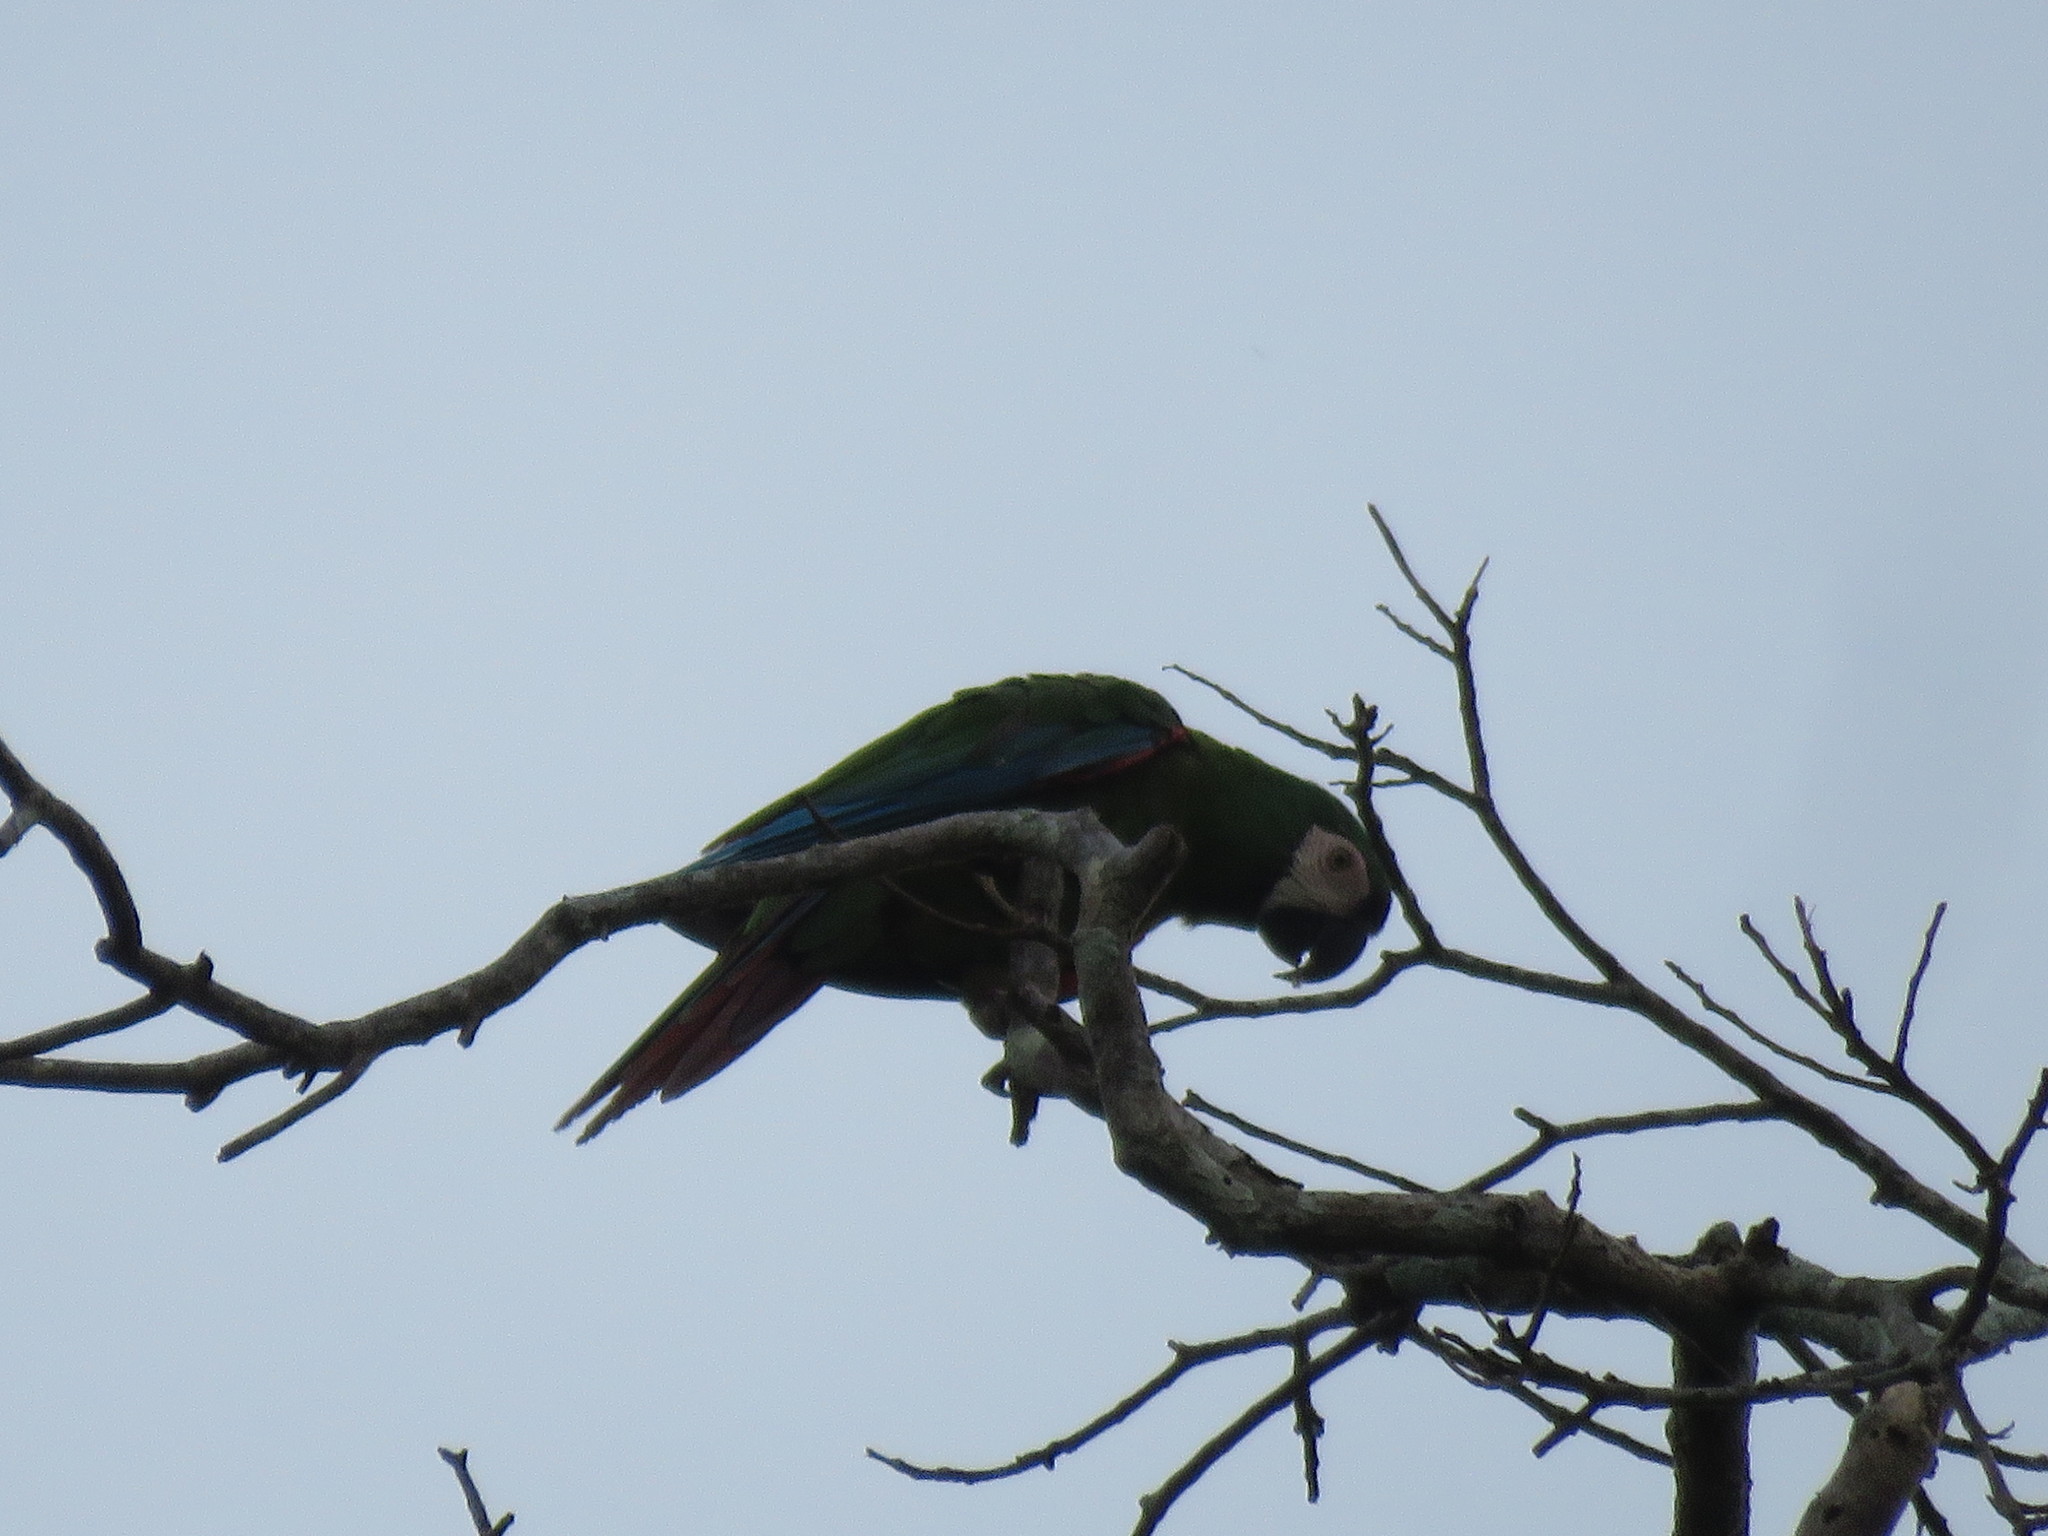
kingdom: Animalia
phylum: Chordata
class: Aves
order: Psittaciformes
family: Psittacidae
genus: Ara
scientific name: Ara severus
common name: Chestnut-fronted macaw
